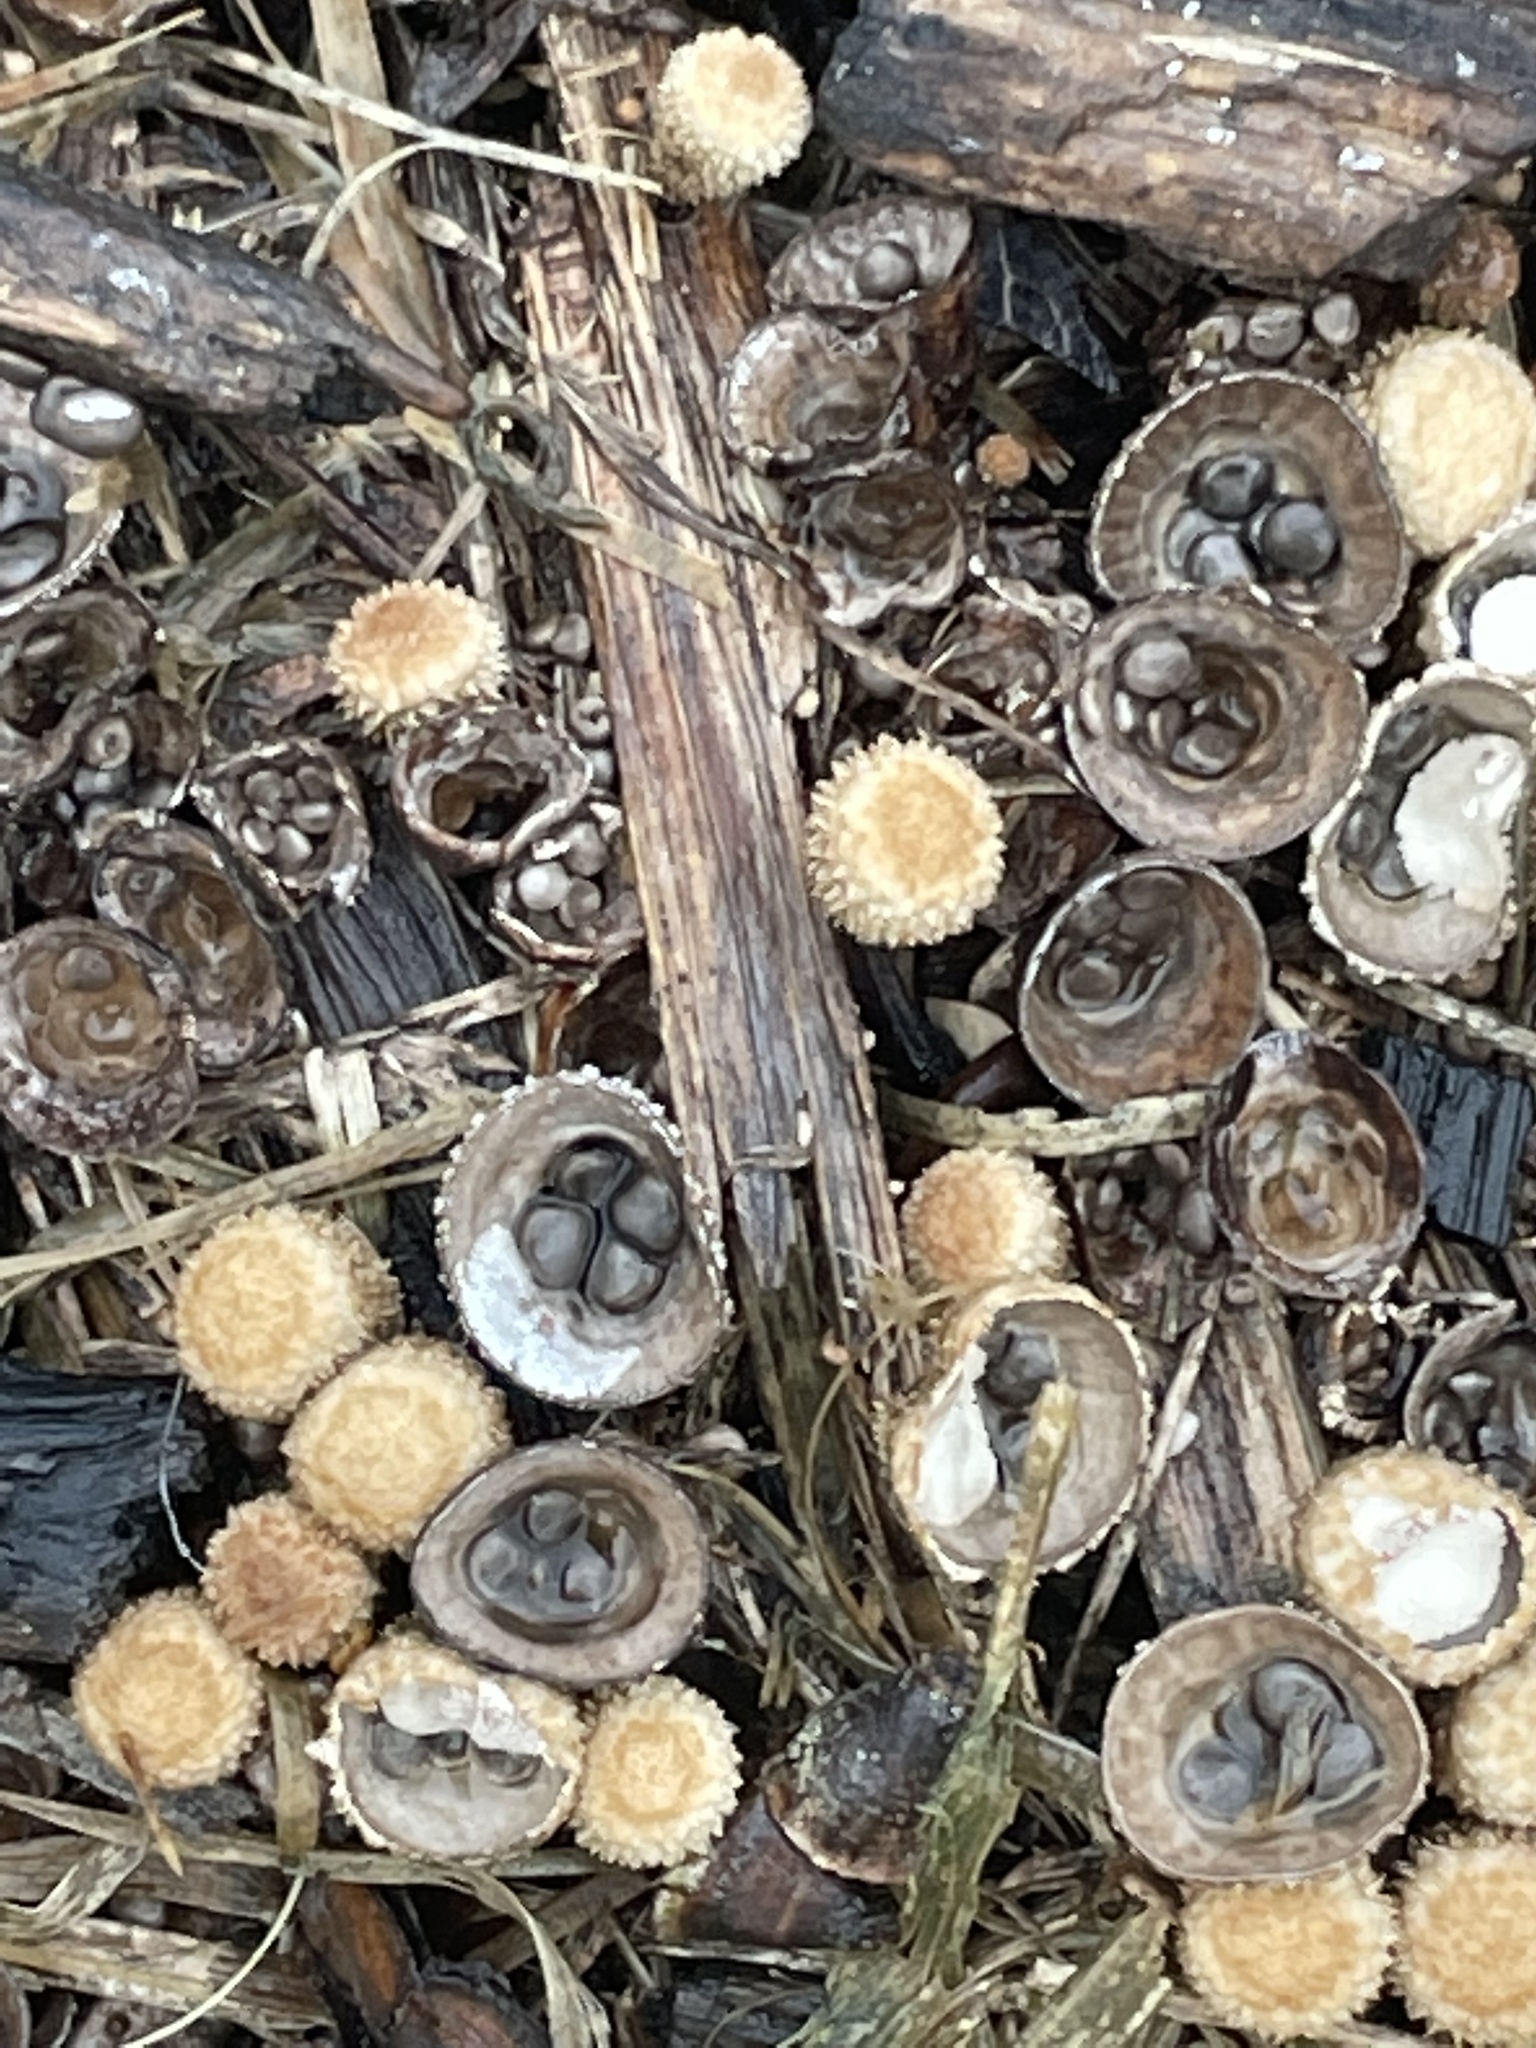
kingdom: Fungi
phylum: Basidiomycota
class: Agaricomycetes
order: Agaricales
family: Agaricaceae
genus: Cyathus
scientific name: Cyathus stercoreus
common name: Dung bird's nest
